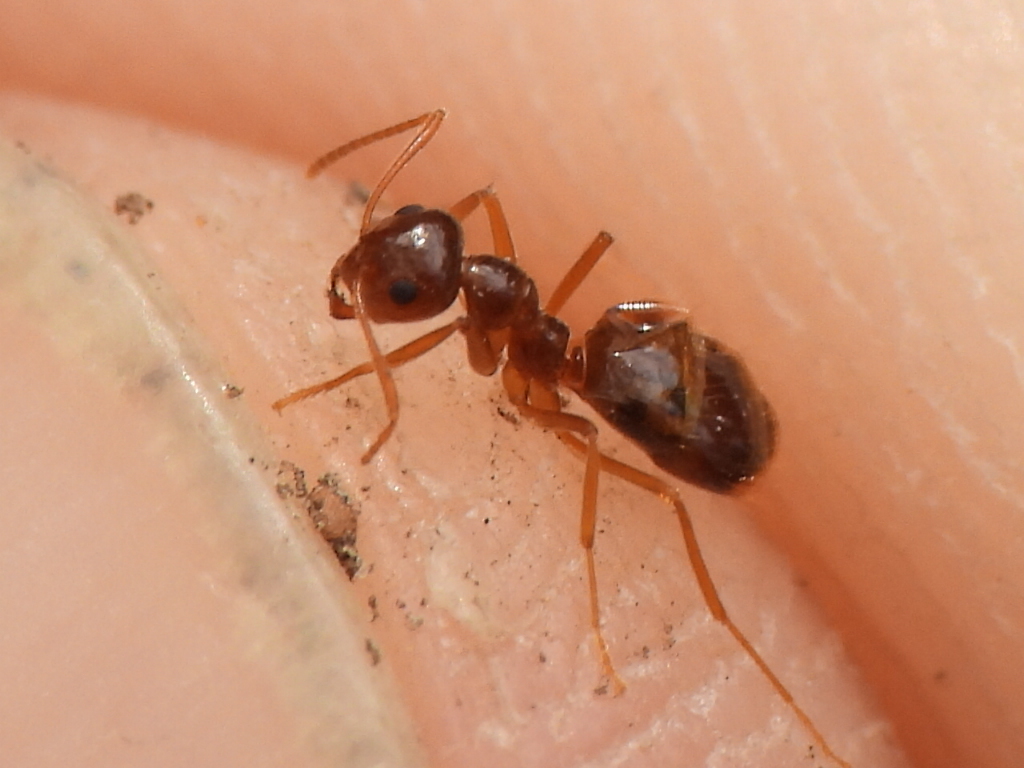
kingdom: Animalia
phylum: Arthropoda
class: Insecta
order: Hymenoptera
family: Formicidae
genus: Prenolepis
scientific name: Prenolepis imparis
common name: Small honey ant
